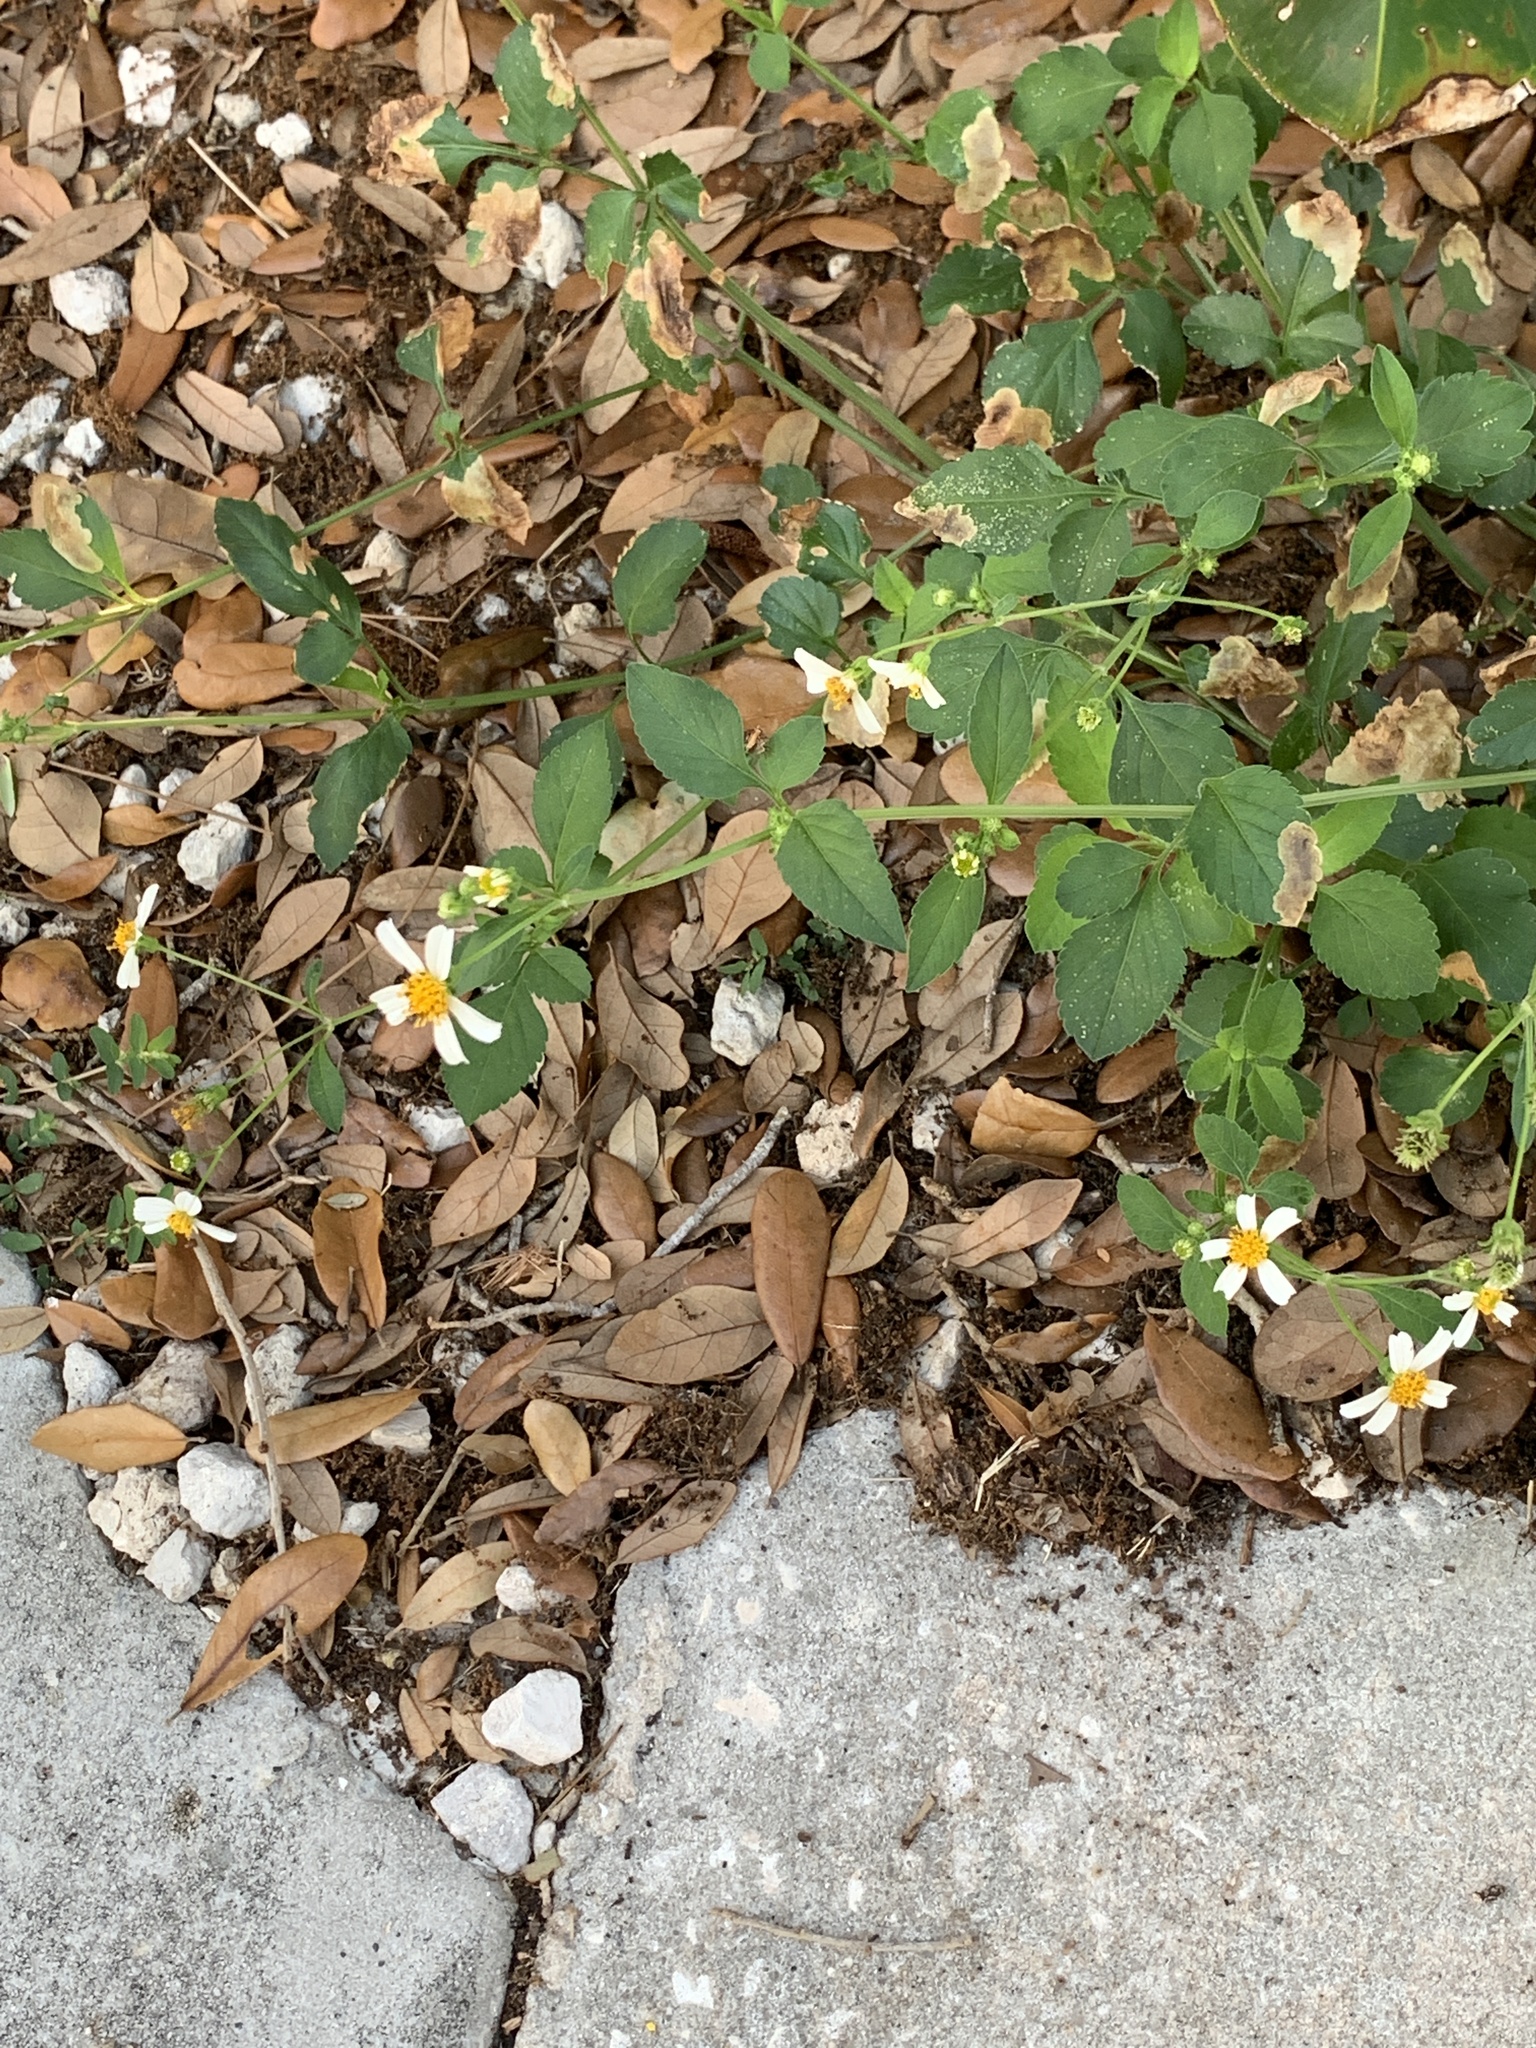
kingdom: Plantae
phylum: Tracheophyta
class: Magnoliopsida
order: Asterales
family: Asteraceae
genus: Bidens
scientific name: Bidens alba
